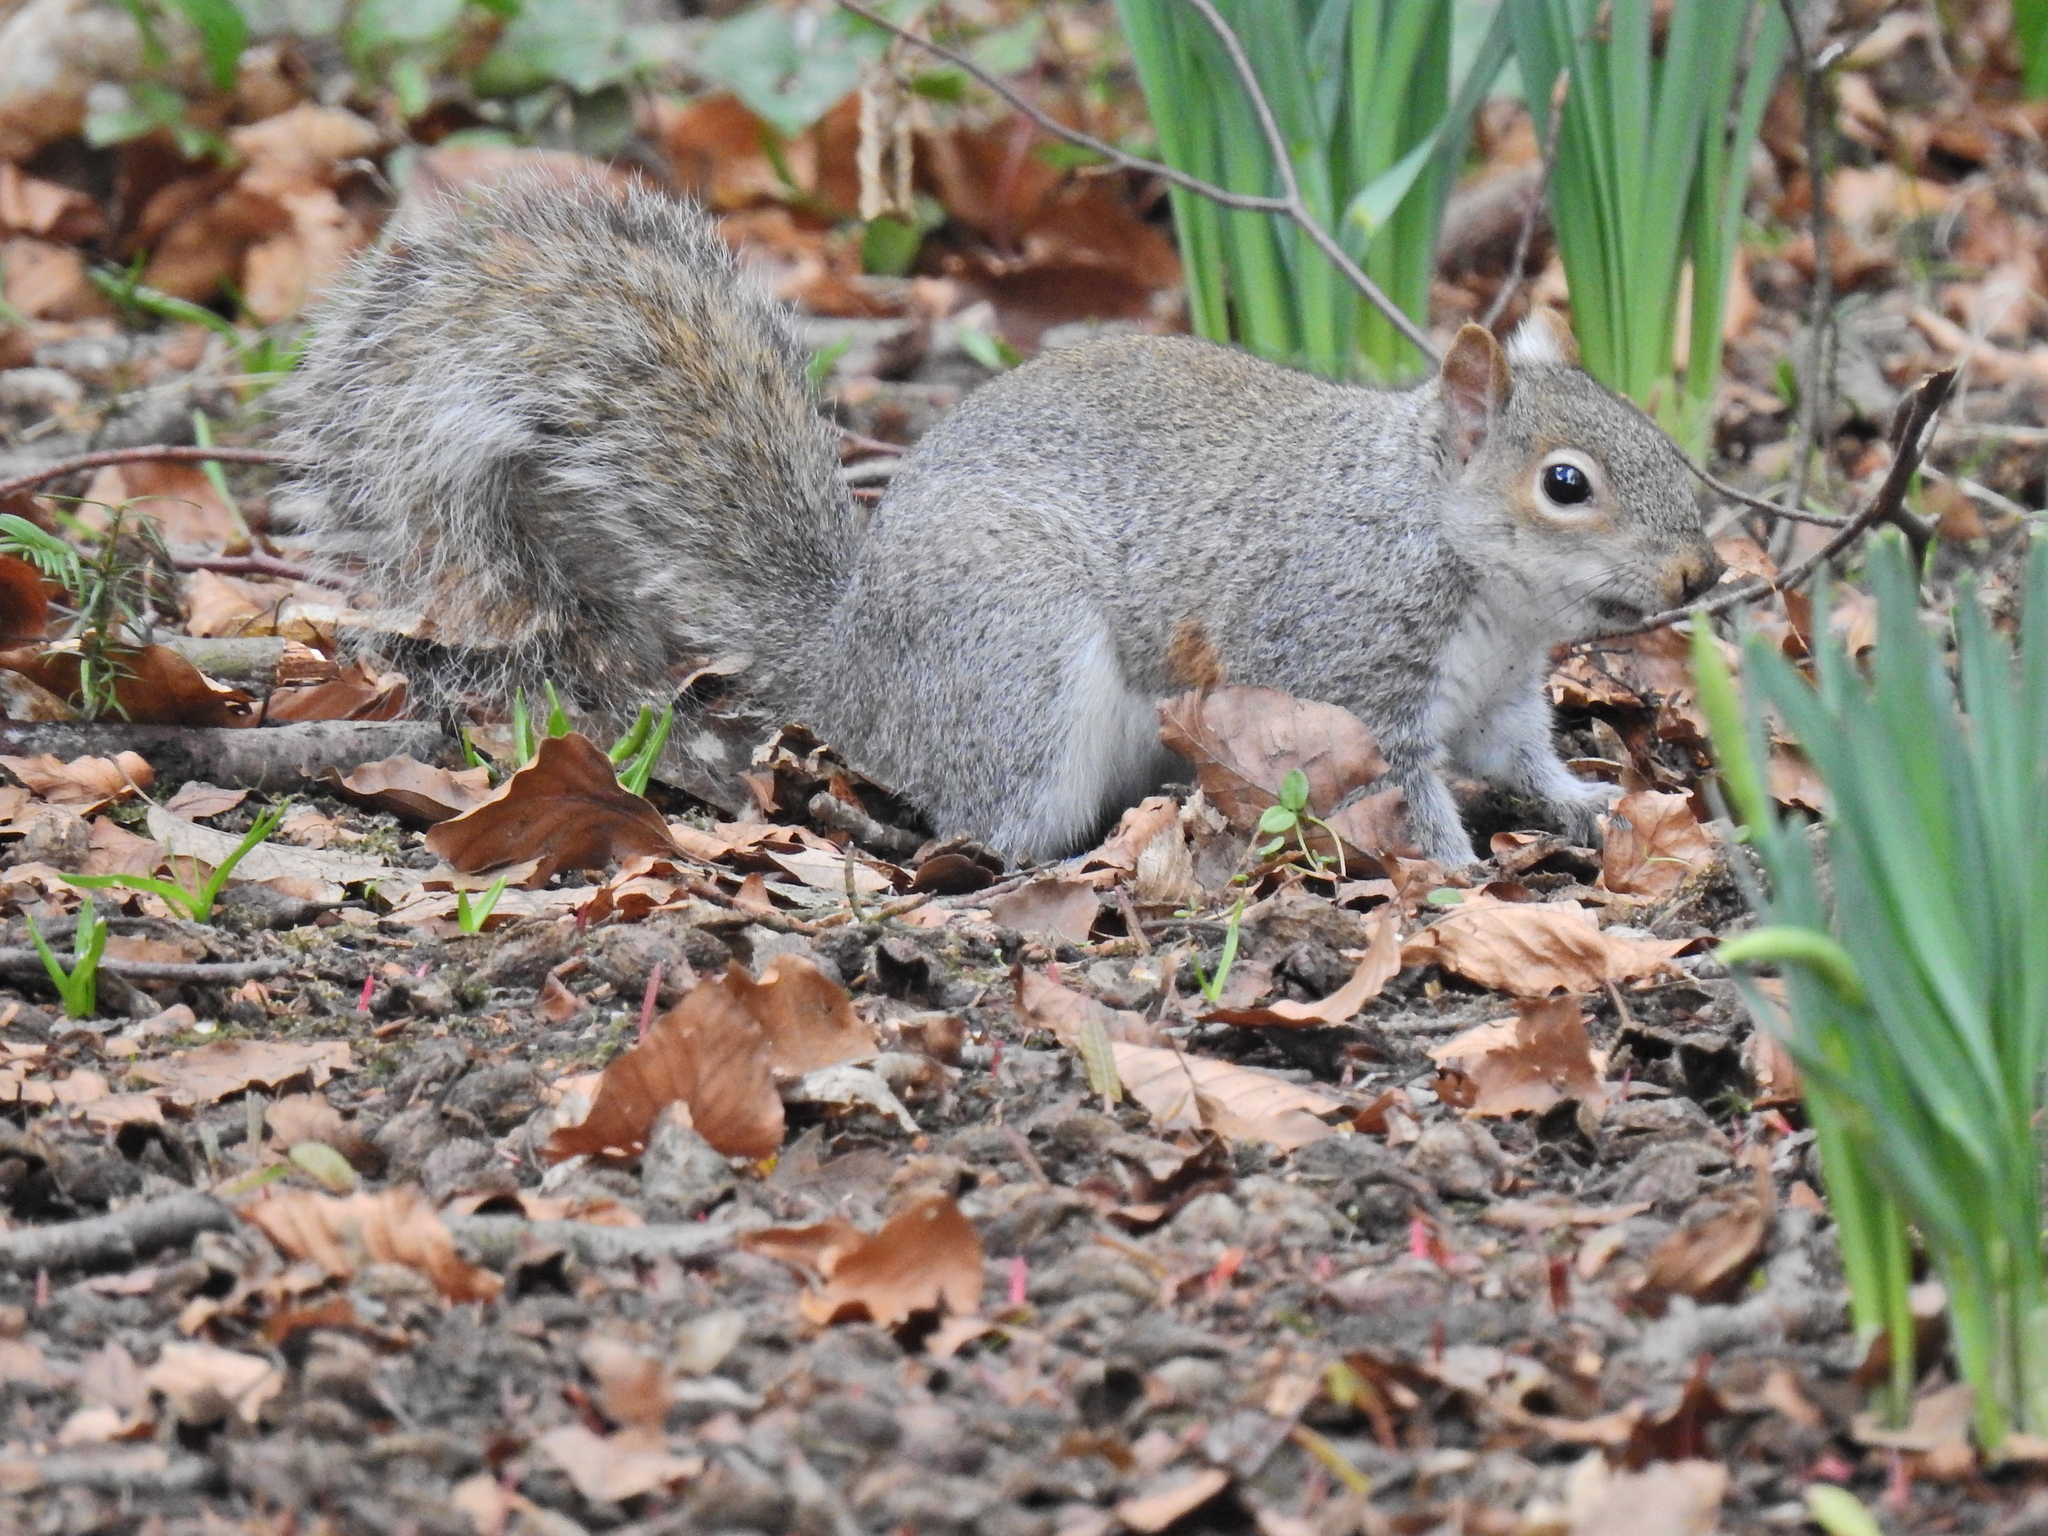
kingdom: Animalia
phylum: Chordata
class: Mammalia
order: Rodentia
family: Sciuridae
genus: Sciurus
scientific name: Sciurus carolinensis
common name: Eastern gray squirrel
